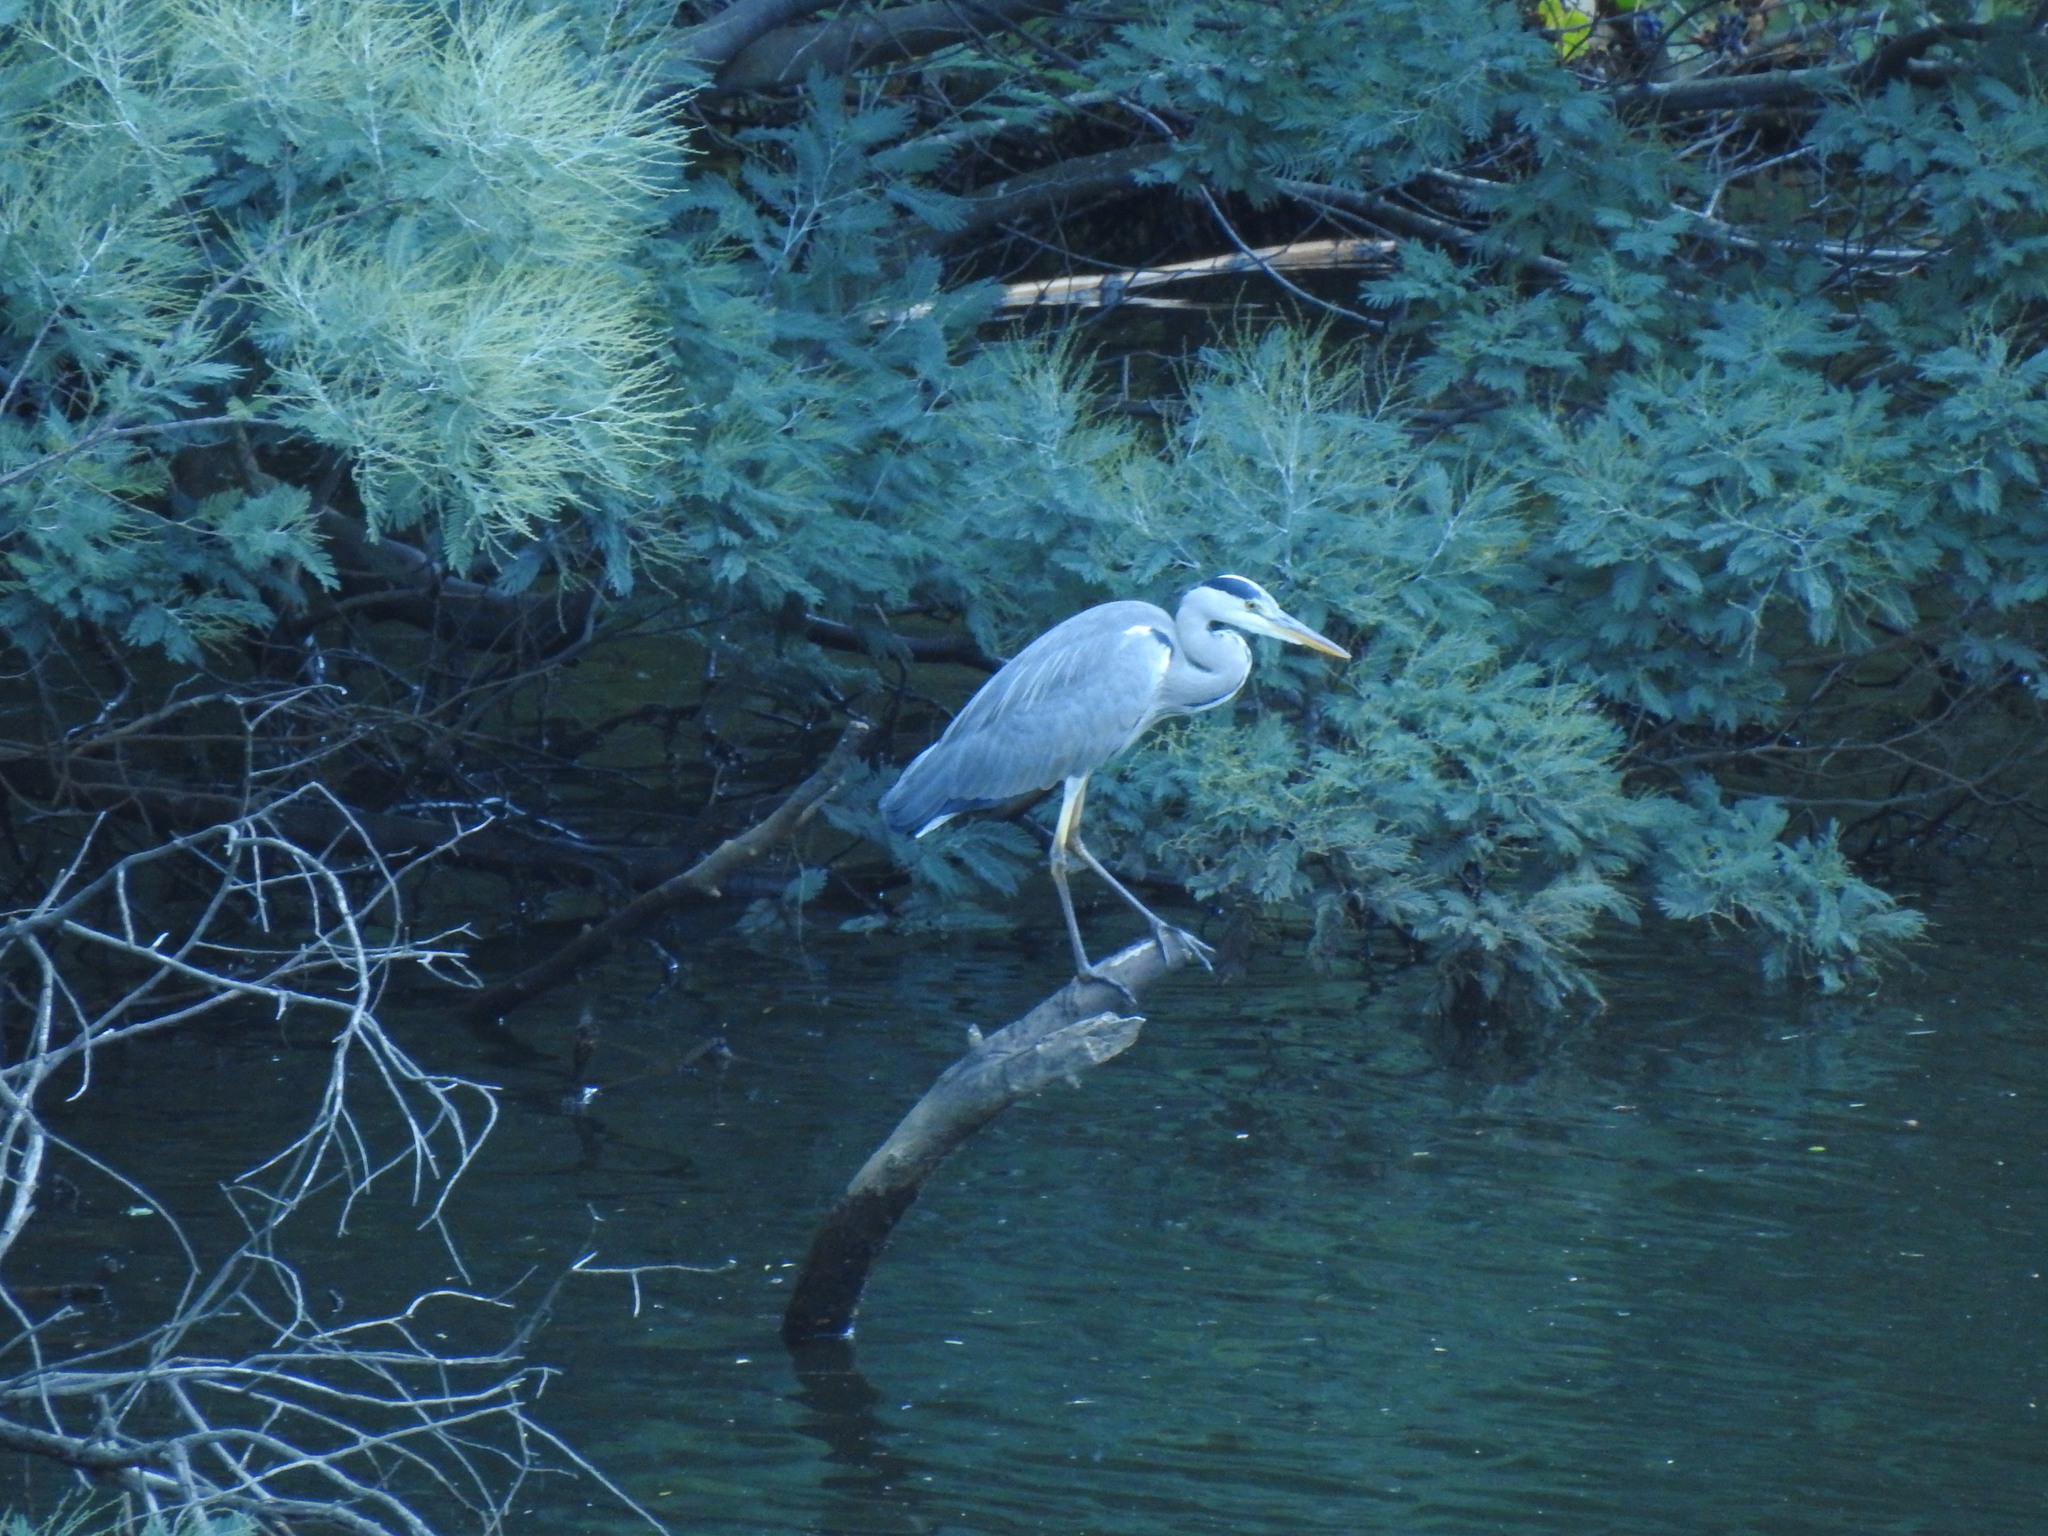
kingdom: Animalia
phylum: Chordata
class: Aves
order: Pelecaniformes
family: Ardeidae
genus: Ardea
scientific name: Ardea cinerea
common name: Grey heron
